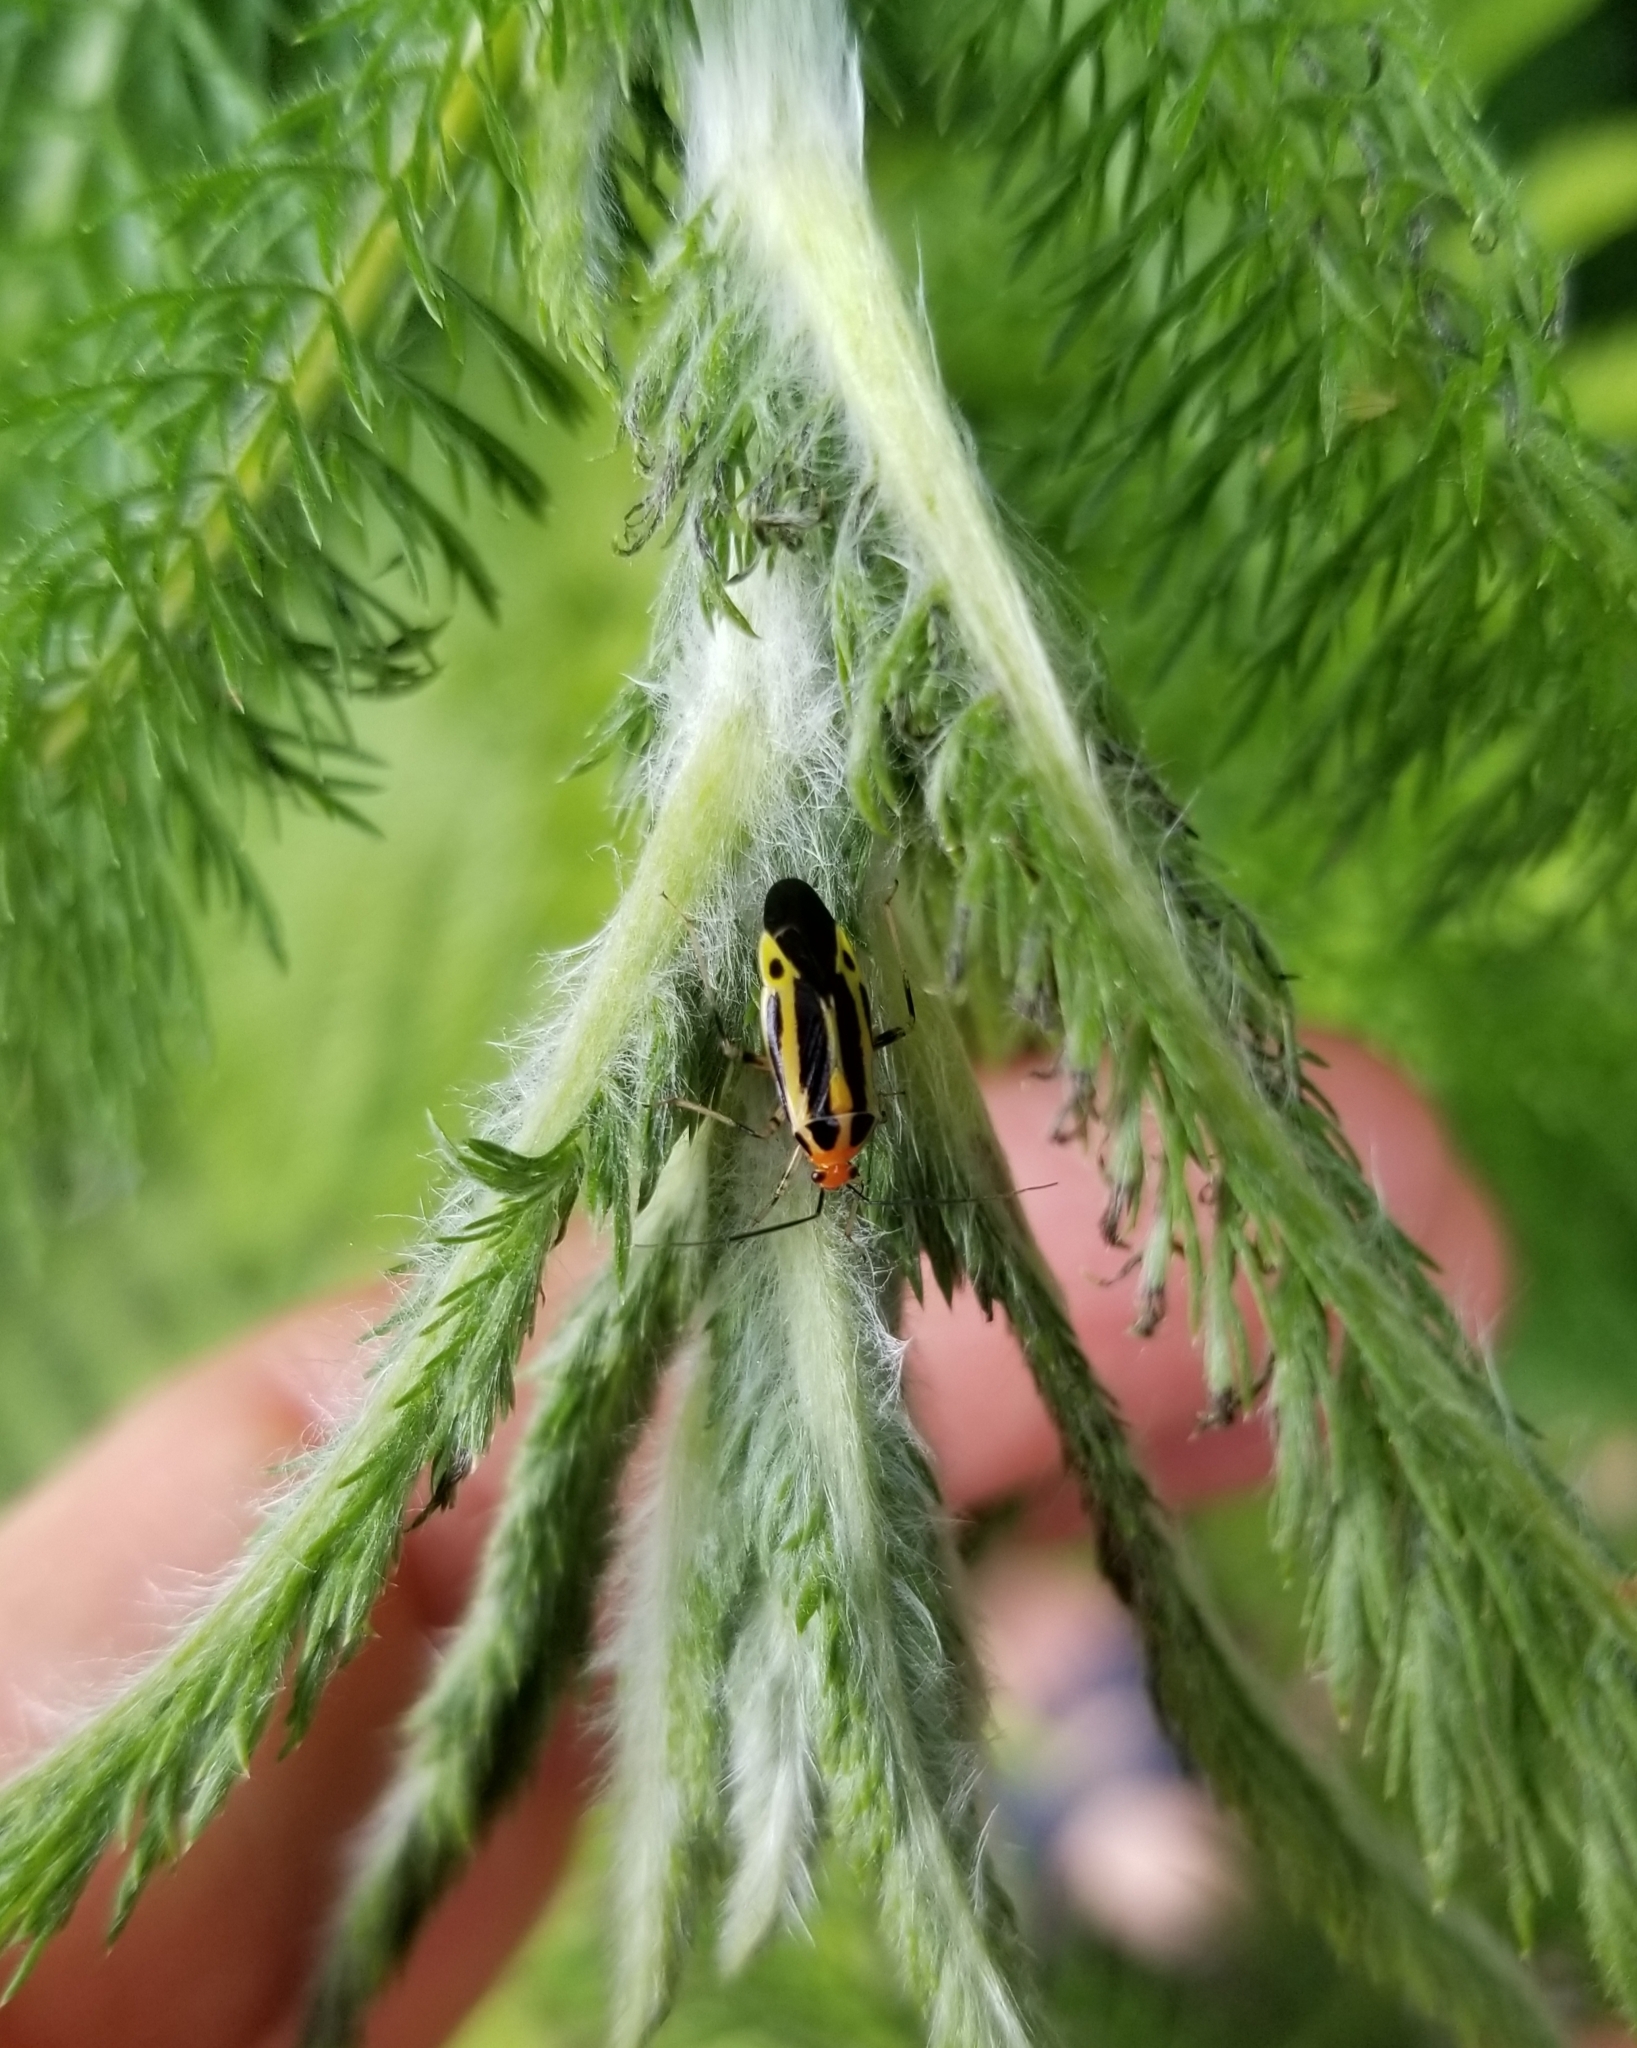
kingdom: Animalia
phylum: Arthropoda
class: Insecta
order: Hemiptera
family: Miridae
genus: Poecilocapsus
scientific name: Poecilocapsus lineatus
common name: Four-lined plant bug
